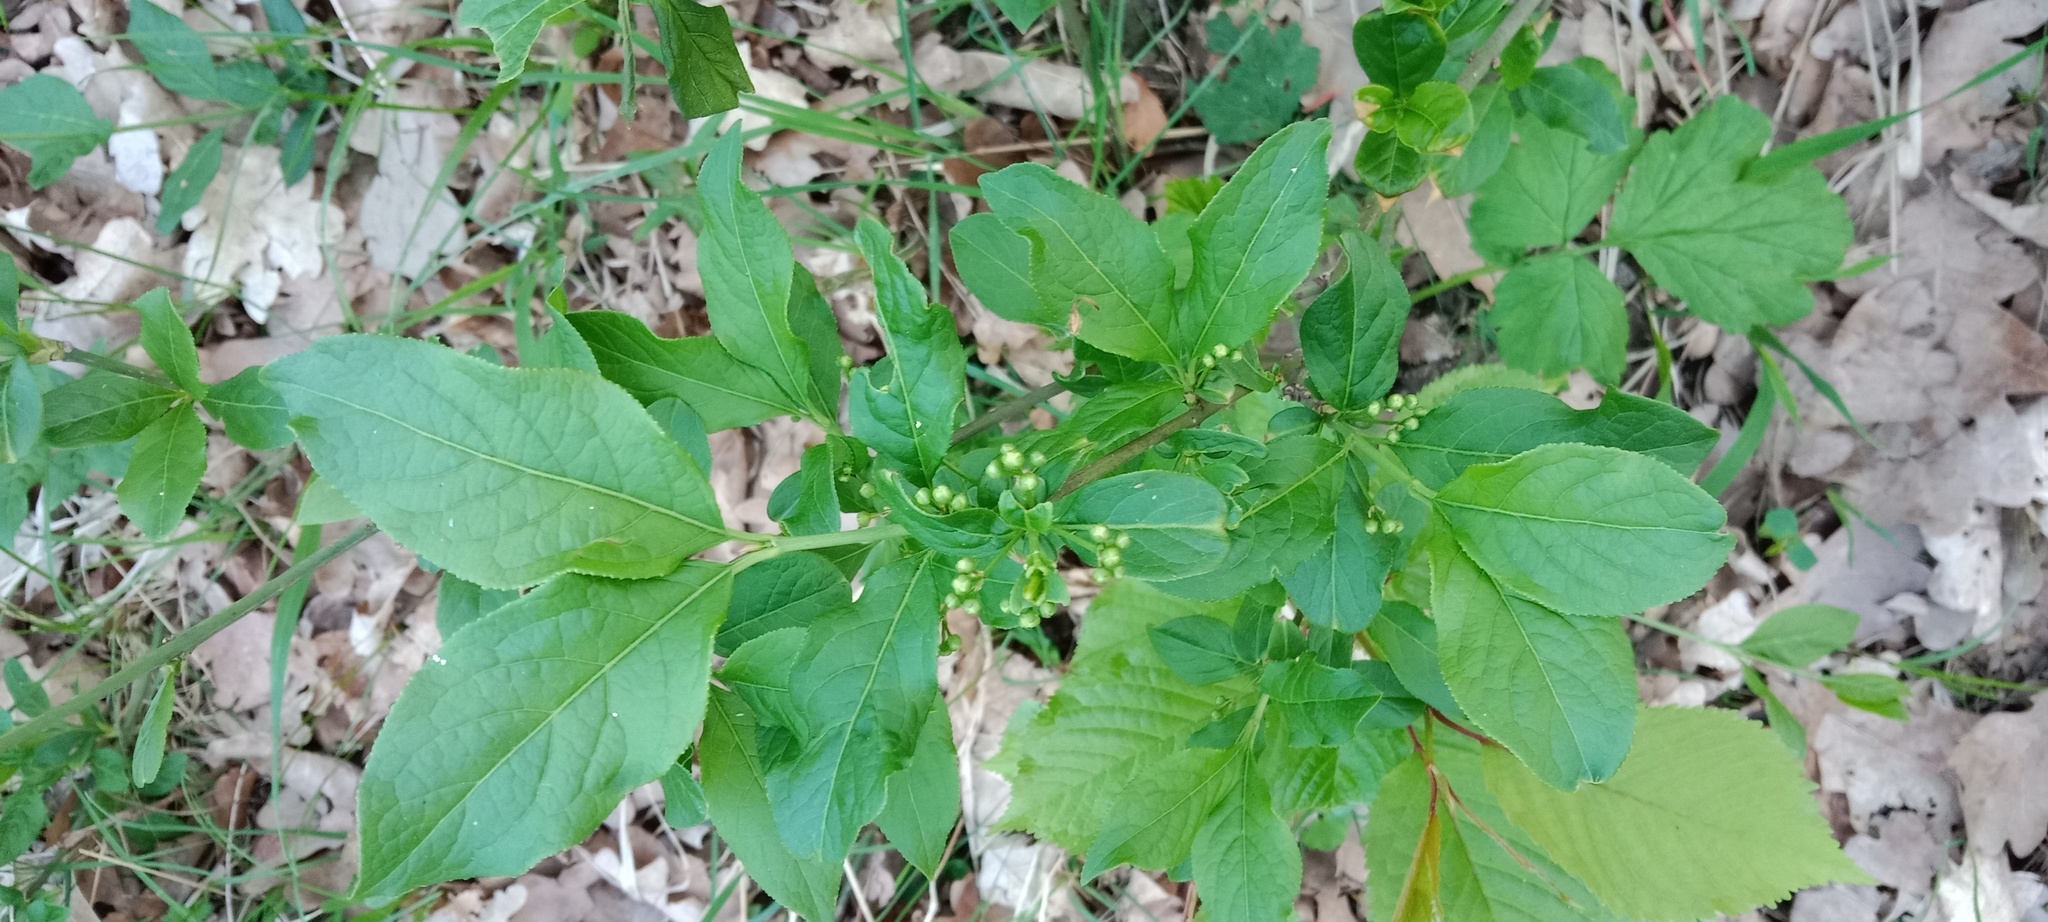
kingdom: Plantae
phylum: Tracheophyta
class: Magnoliopsida
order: Celastrales
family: Celastraceae
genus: Euonymus
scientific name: Euonymus europaeus
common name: Spindle
